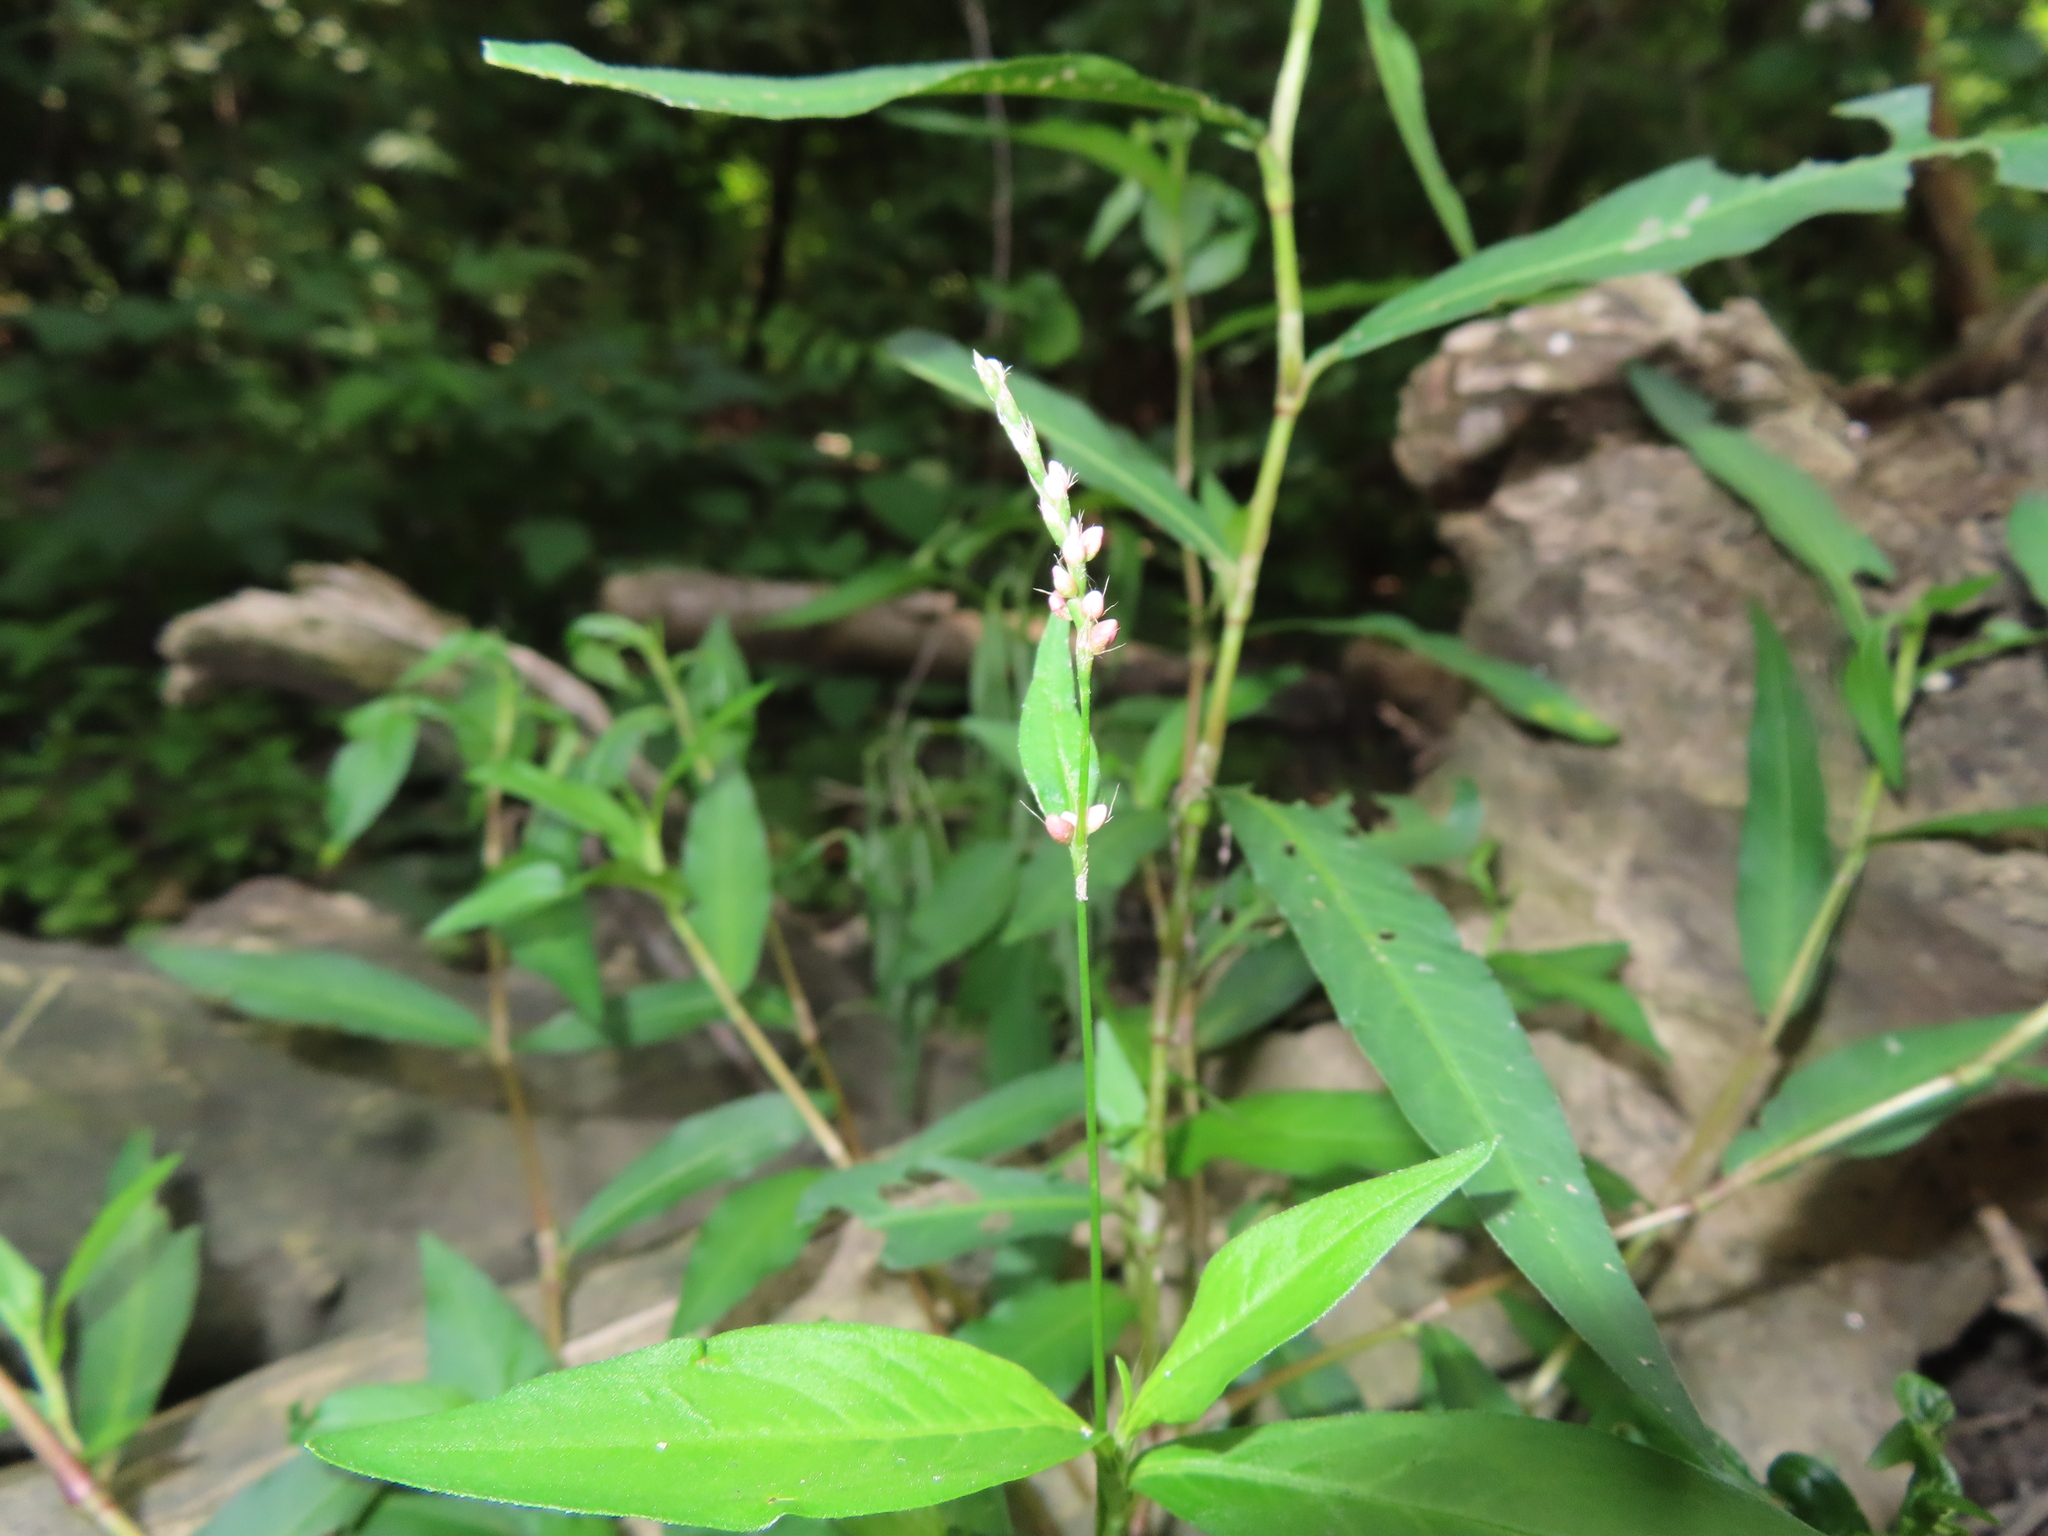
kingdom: Plantae
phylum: Tracheophyta
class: Magnoliopsida
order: Caryophyllales
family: Polygonaceae
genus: Persicaria
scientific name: Persicaria longiseta
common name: Bristly lady's-thumb
